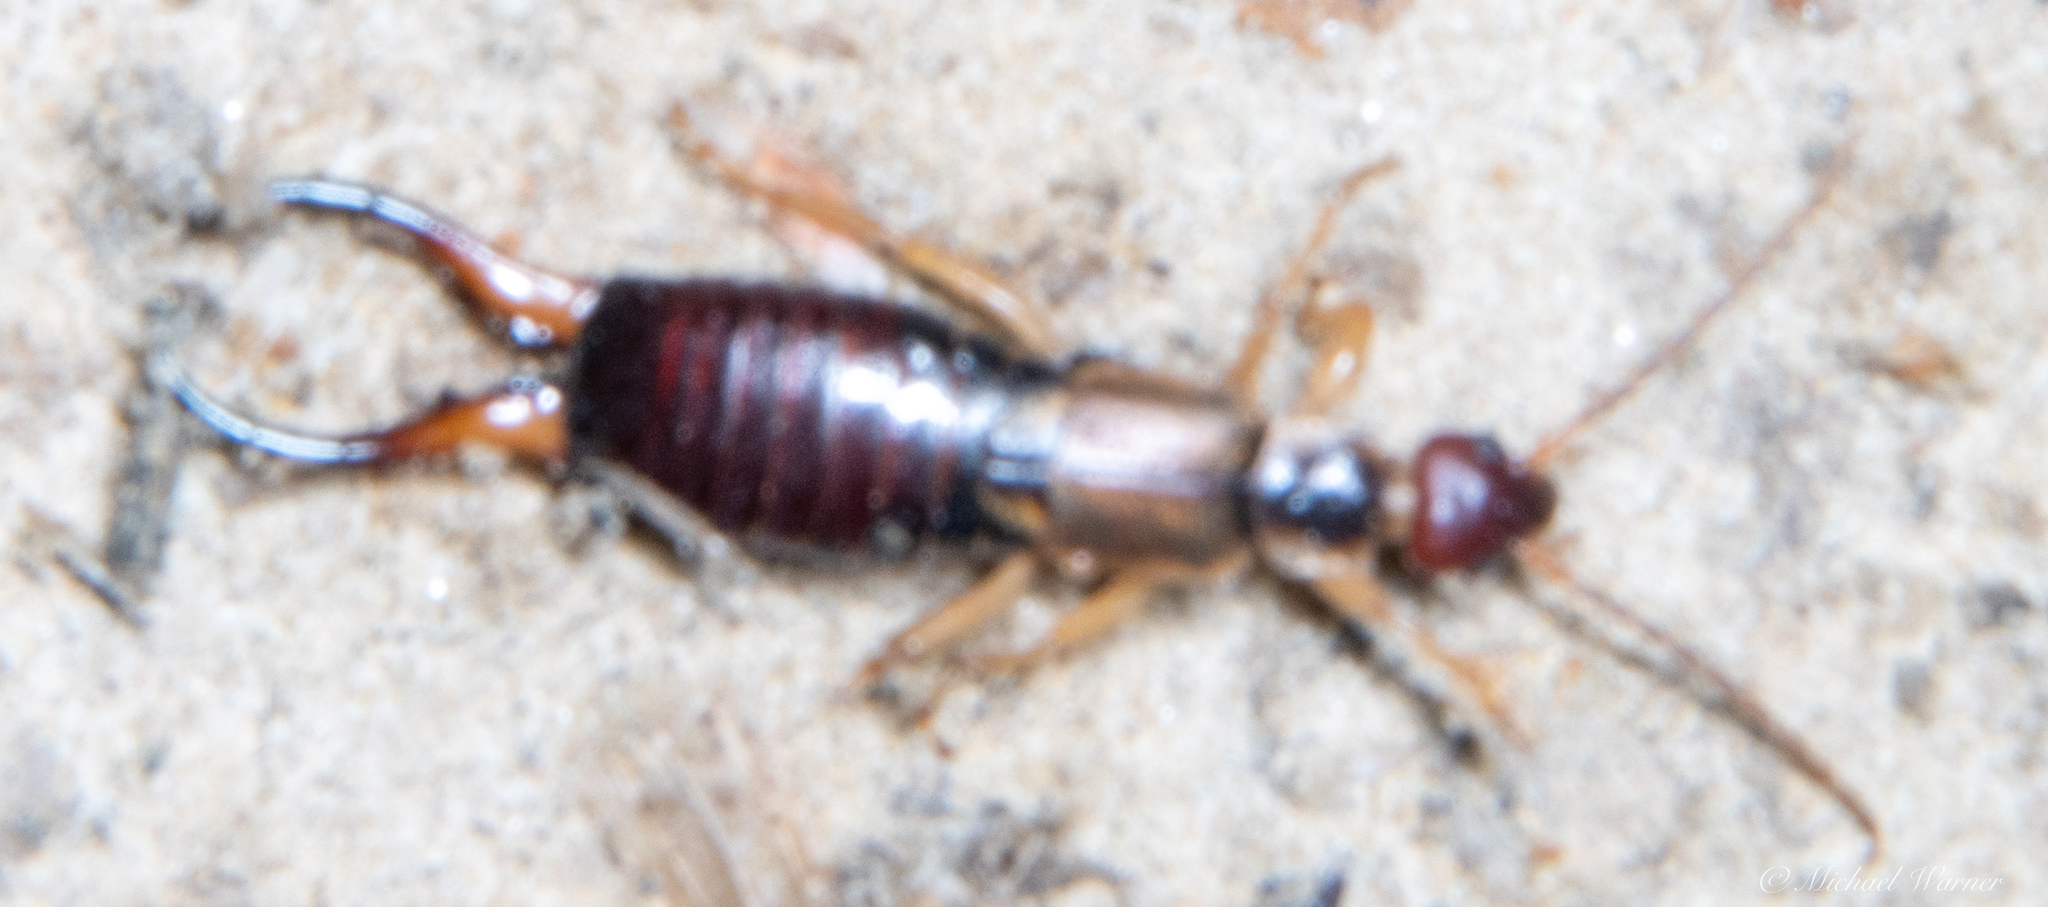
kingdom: Animalia
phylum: Arthropoda
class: Insecta
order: Dermaptera
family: Forficulidae
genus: Forficula
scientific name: Forficula dentata
